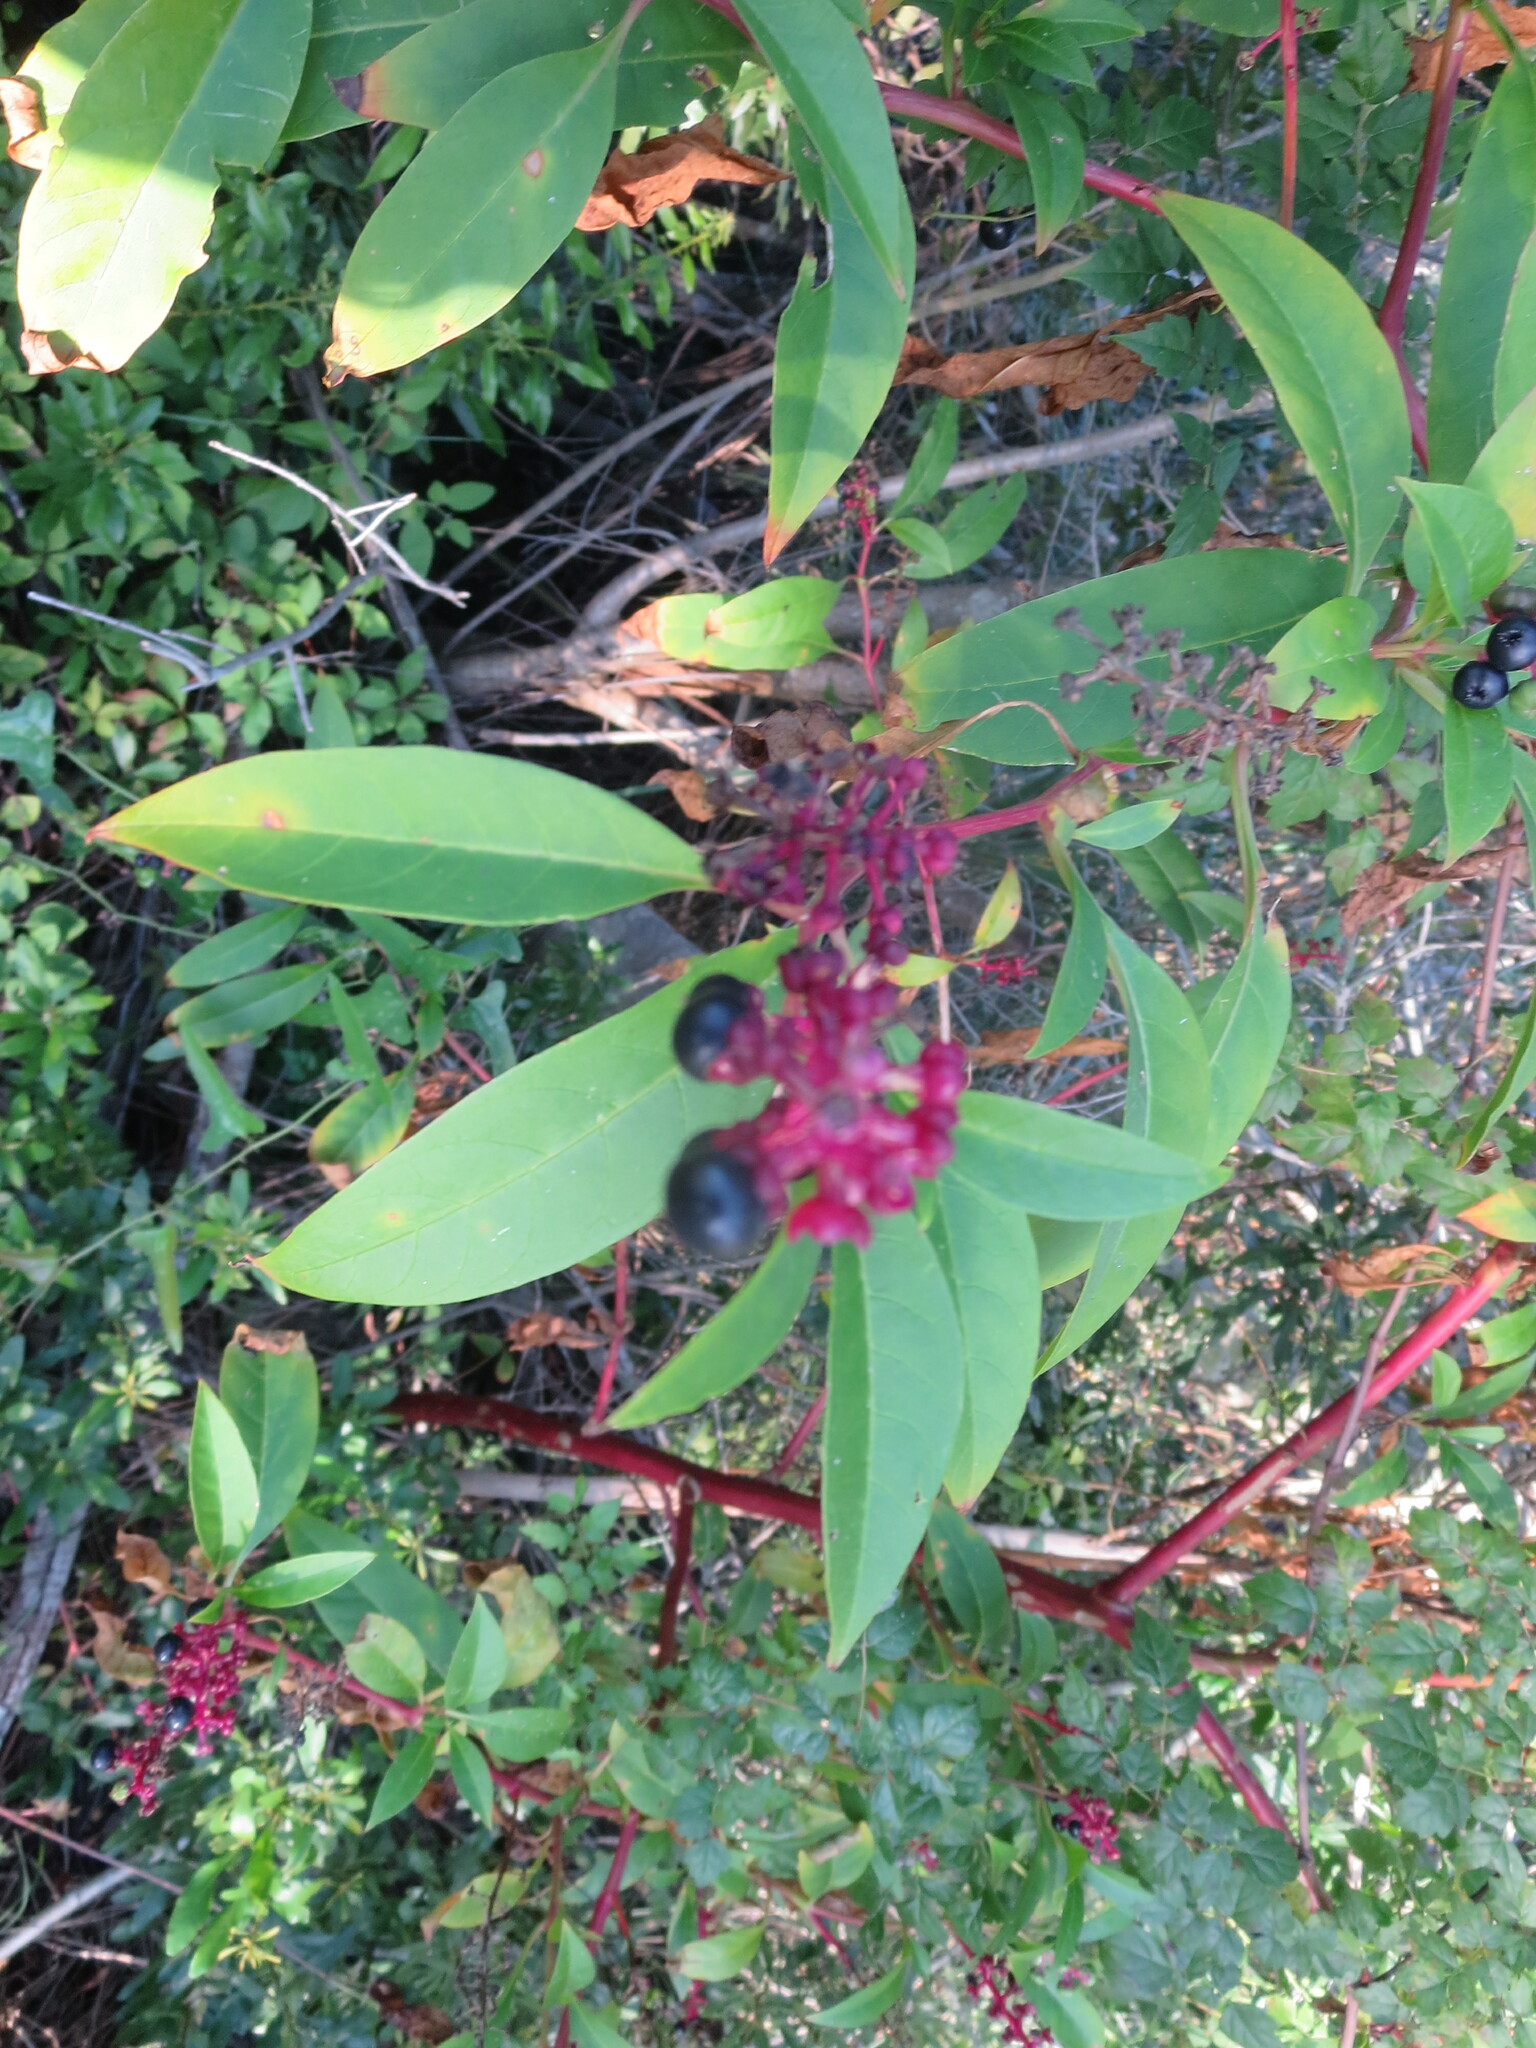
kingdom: Plantae
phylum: Tracheophyta
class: Magnoliopsida
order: Caryophyllales
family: Phytolaccaceae
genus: Phytolacca
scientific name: Phytolacca americana
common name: American pokeweed
